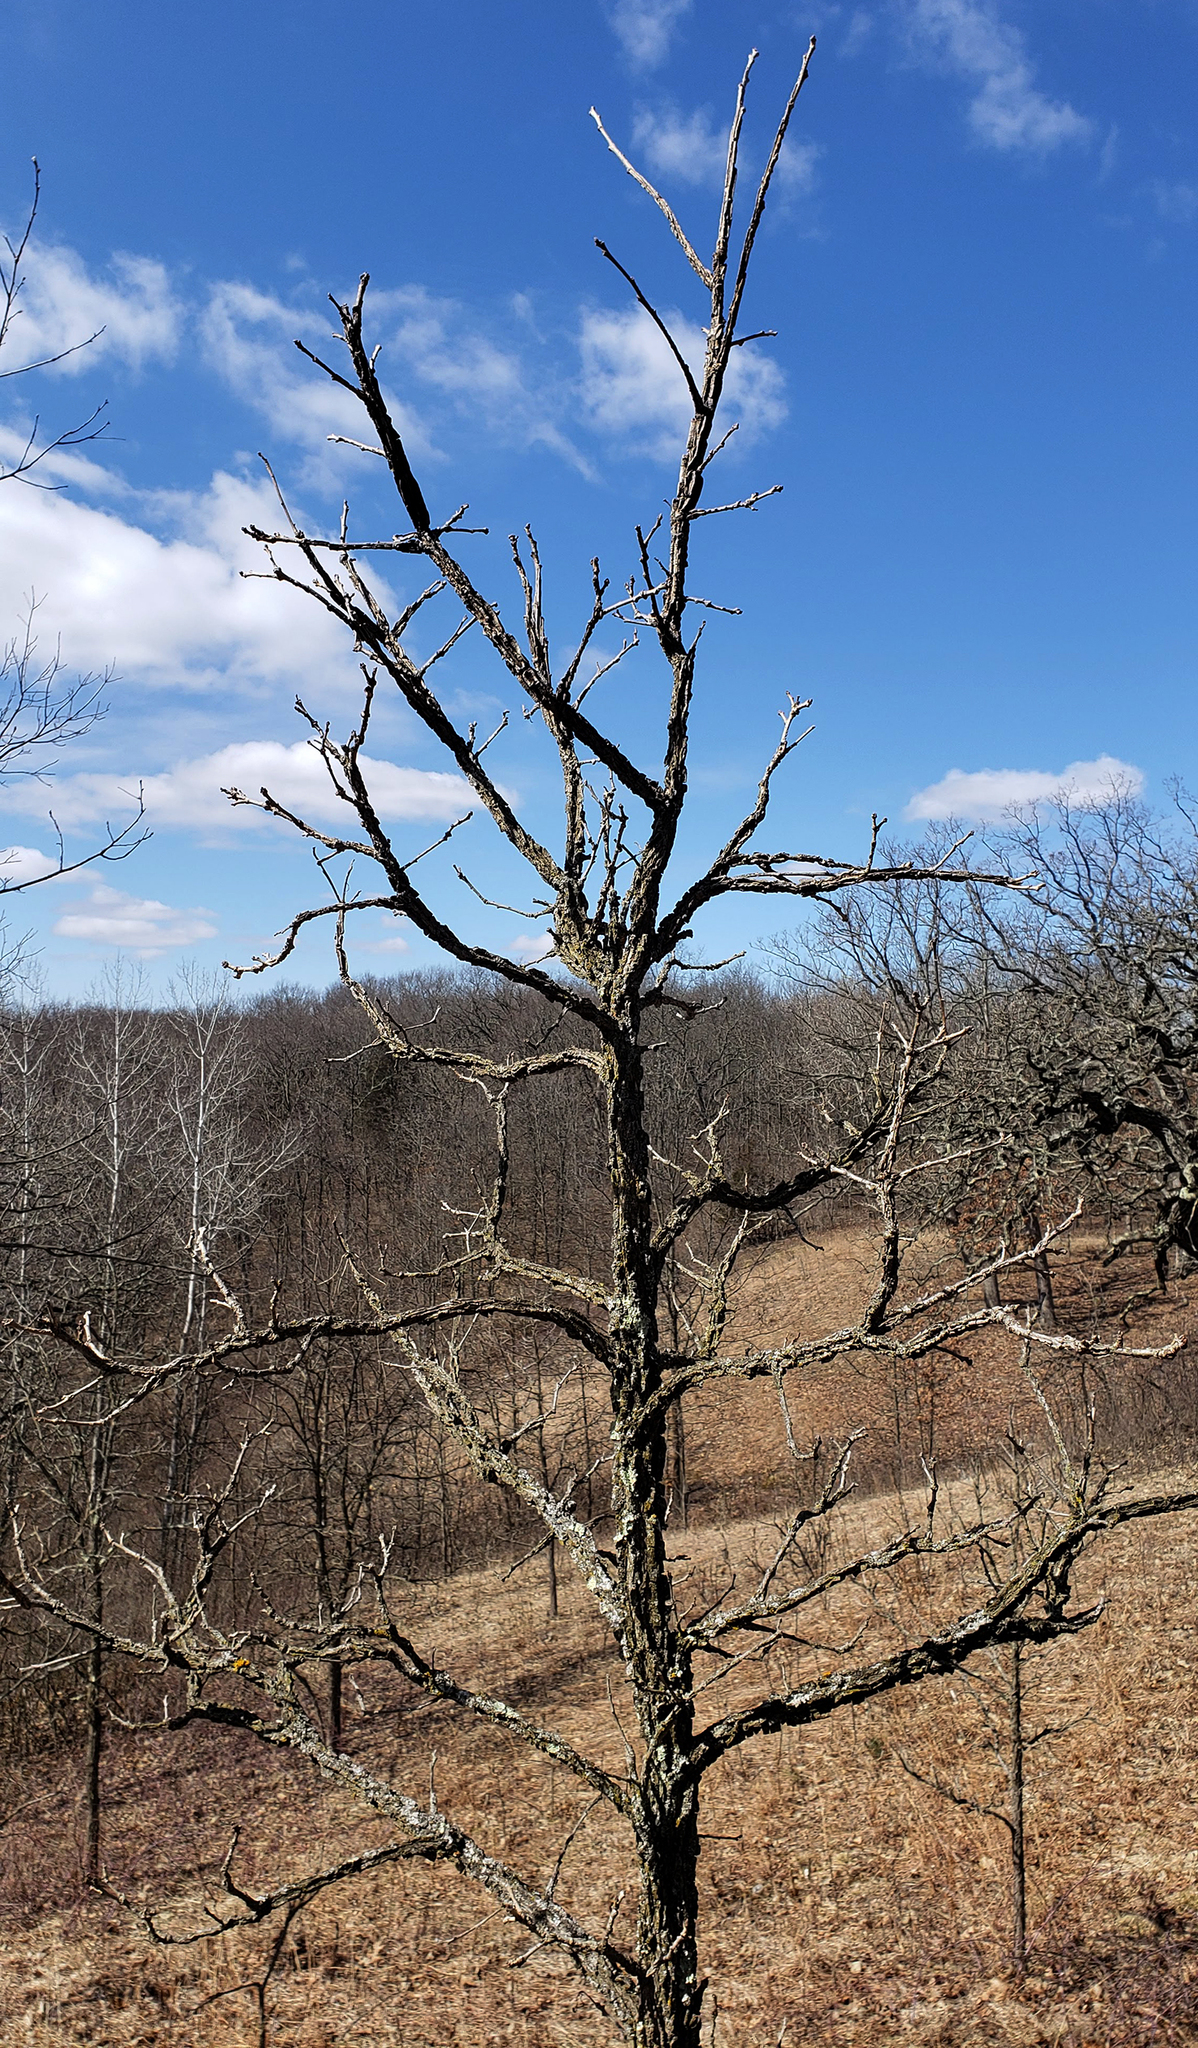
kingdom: Plantae
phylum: Tracheophyta
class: Magnoliopsida
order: Fagales
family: Fagaceae
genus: Quercus
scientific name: Quercus macrocarpa
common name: Bur oak
